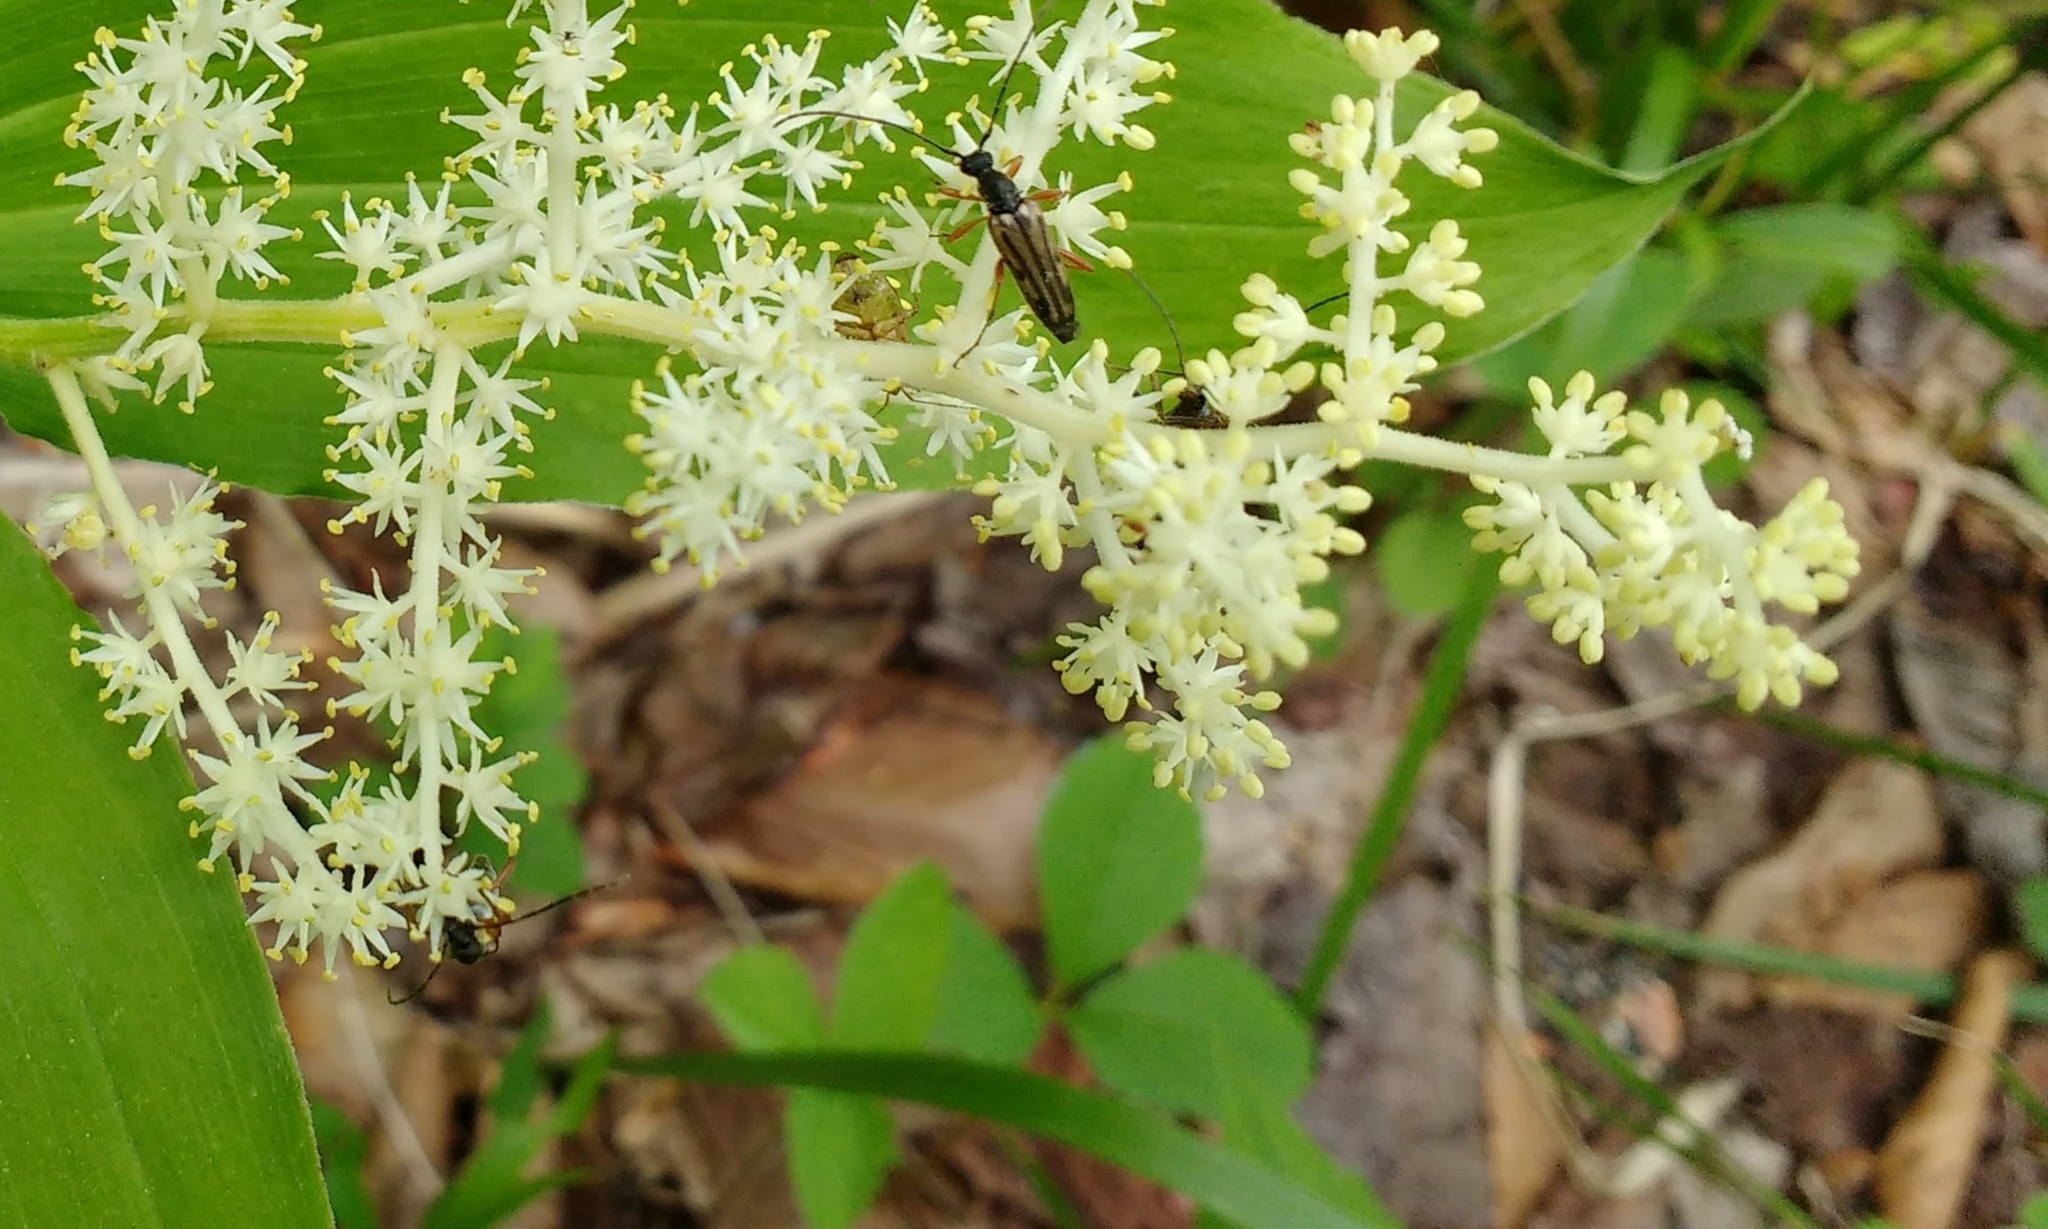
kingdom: Animalia
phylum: Arthropoda
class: Insecta
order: Coleoptera
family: Cerambycidae
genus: Analeptura
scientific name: Analeptura lineola
